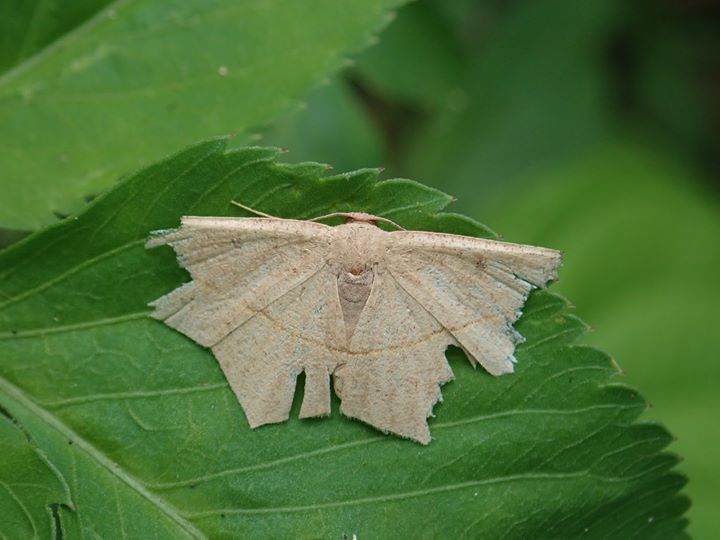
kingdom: Animalia
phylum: Arthropoda
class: Insecta
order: Lepidoptera
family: Geometridae
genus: Traminda
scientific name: Traminda aventiaria
